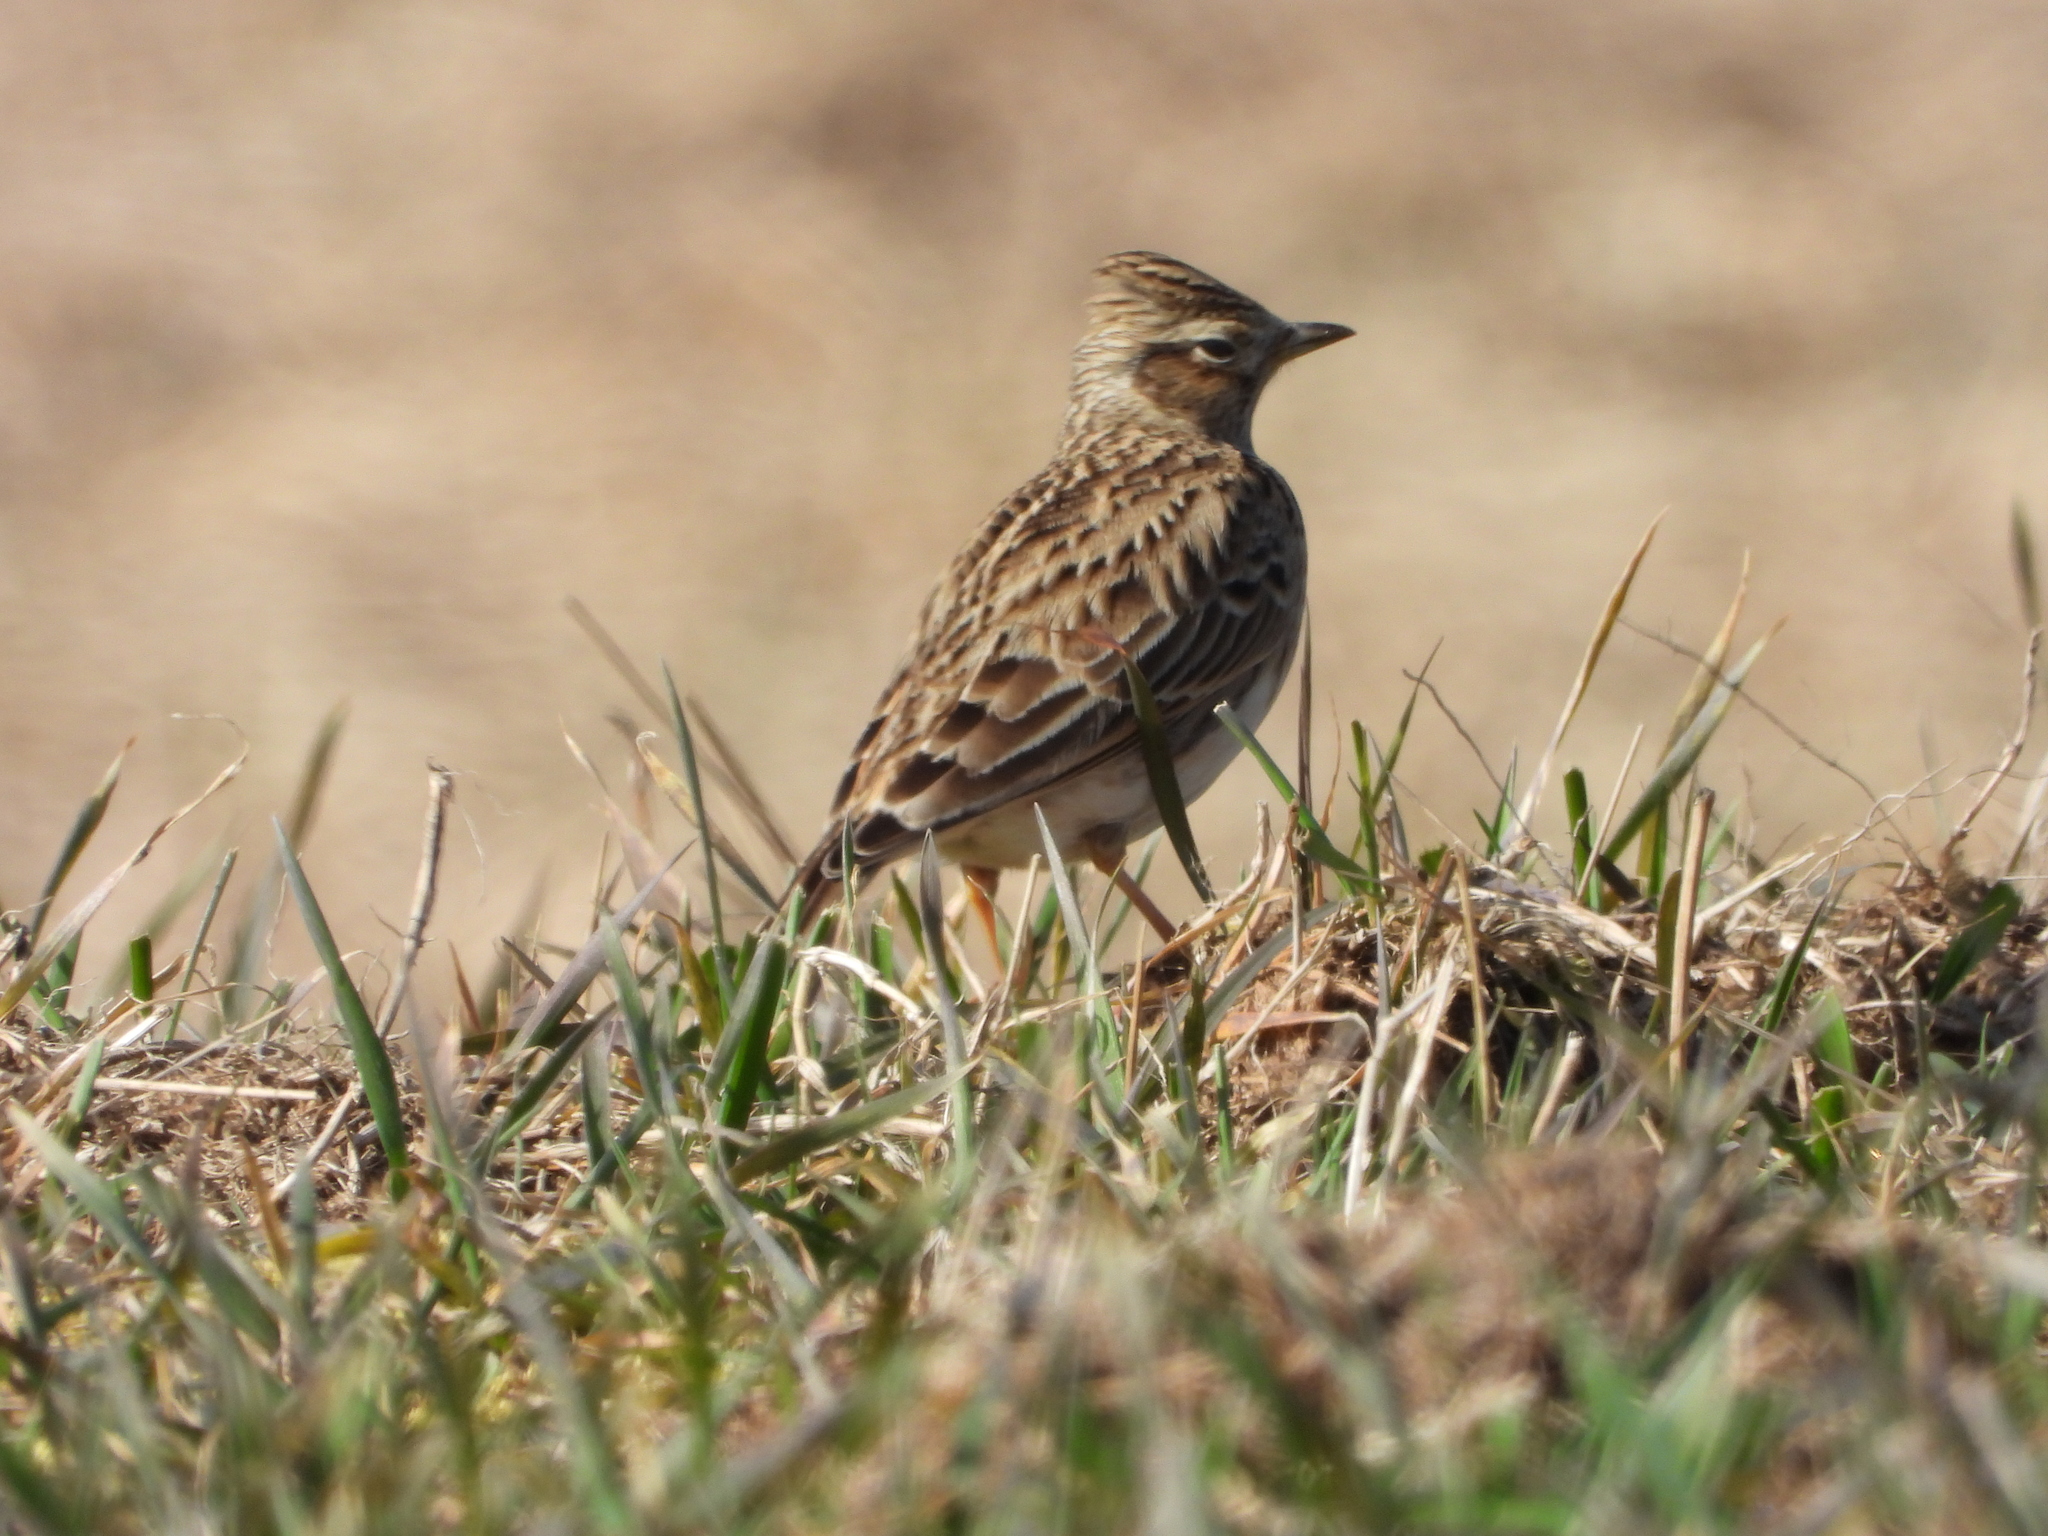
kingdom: Animalia
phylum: Chordata
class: Aves
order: Passeriformes
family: Alaudidae
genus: Alauda
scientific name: Alauda arvensis
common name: Eurasian skylark
